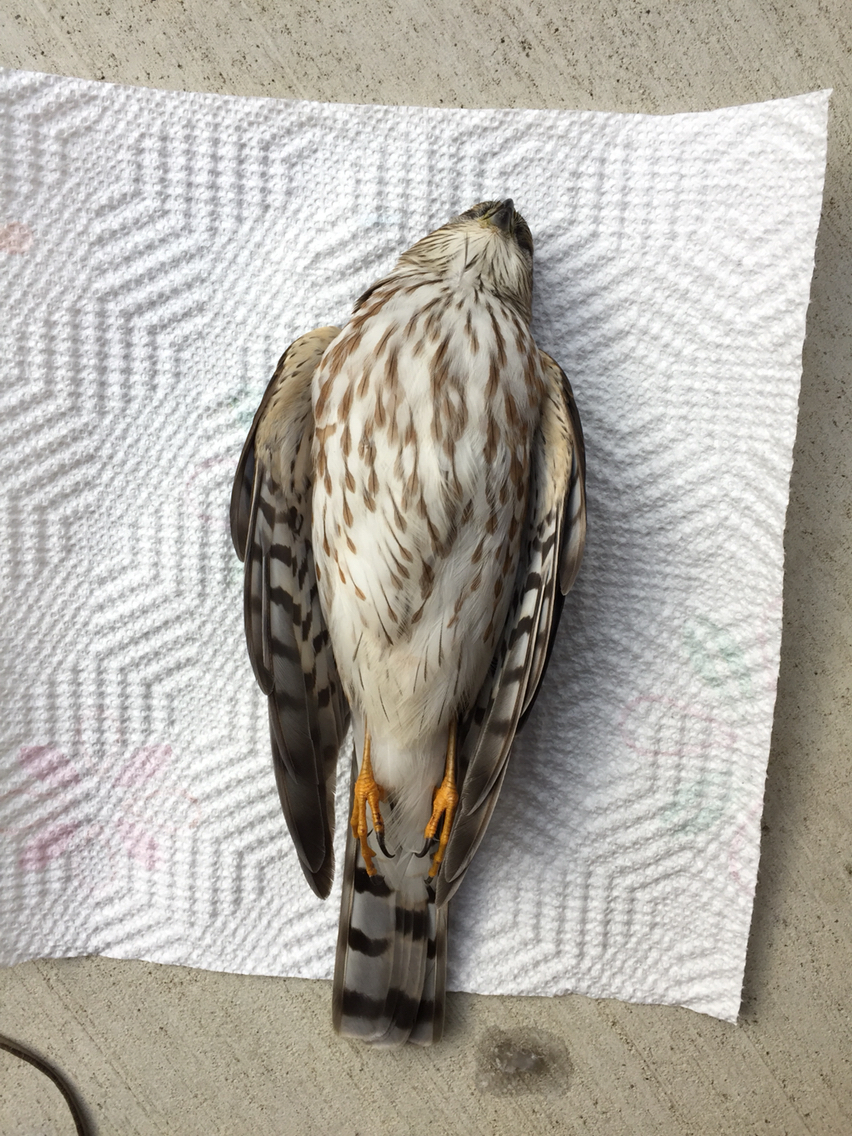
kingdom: Animalia
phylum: Chordata
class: Aves
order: Accipitriformes
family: Accipitridae
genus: Accipiter
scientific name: Accipiter striatus
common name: Sharp-shinned hawk
